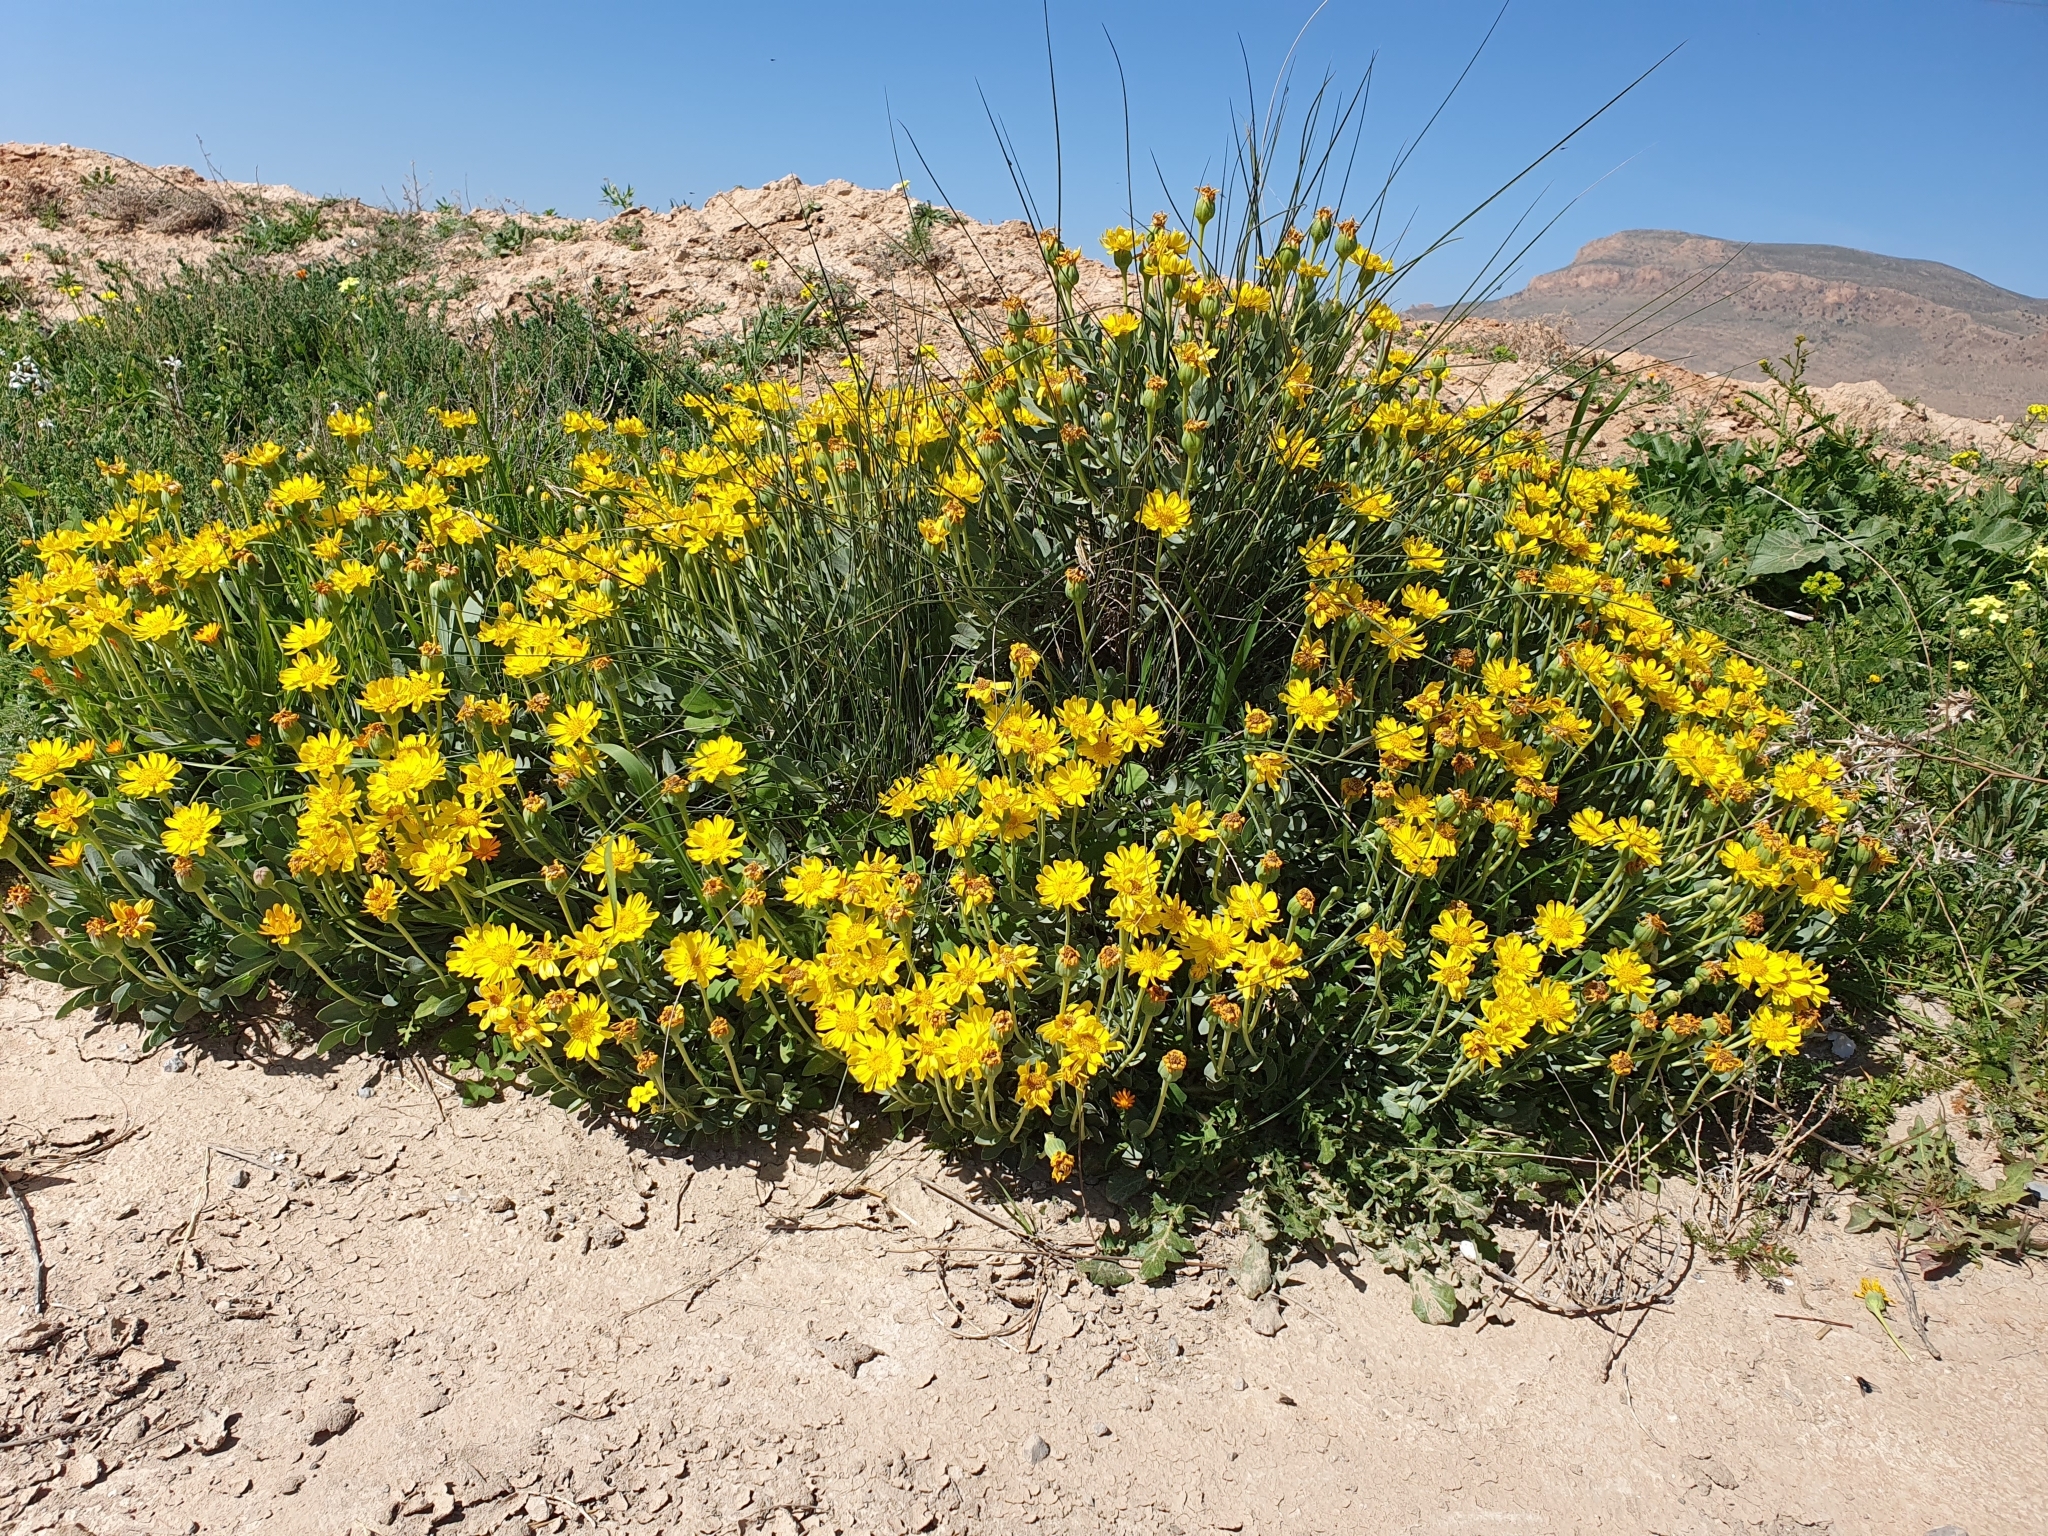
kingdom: Plantae
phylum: Tracheophyta
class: Magnoliopsida
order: Asterales
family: Asteraceae
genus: Hertia
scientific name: Hertia cheirifolia
